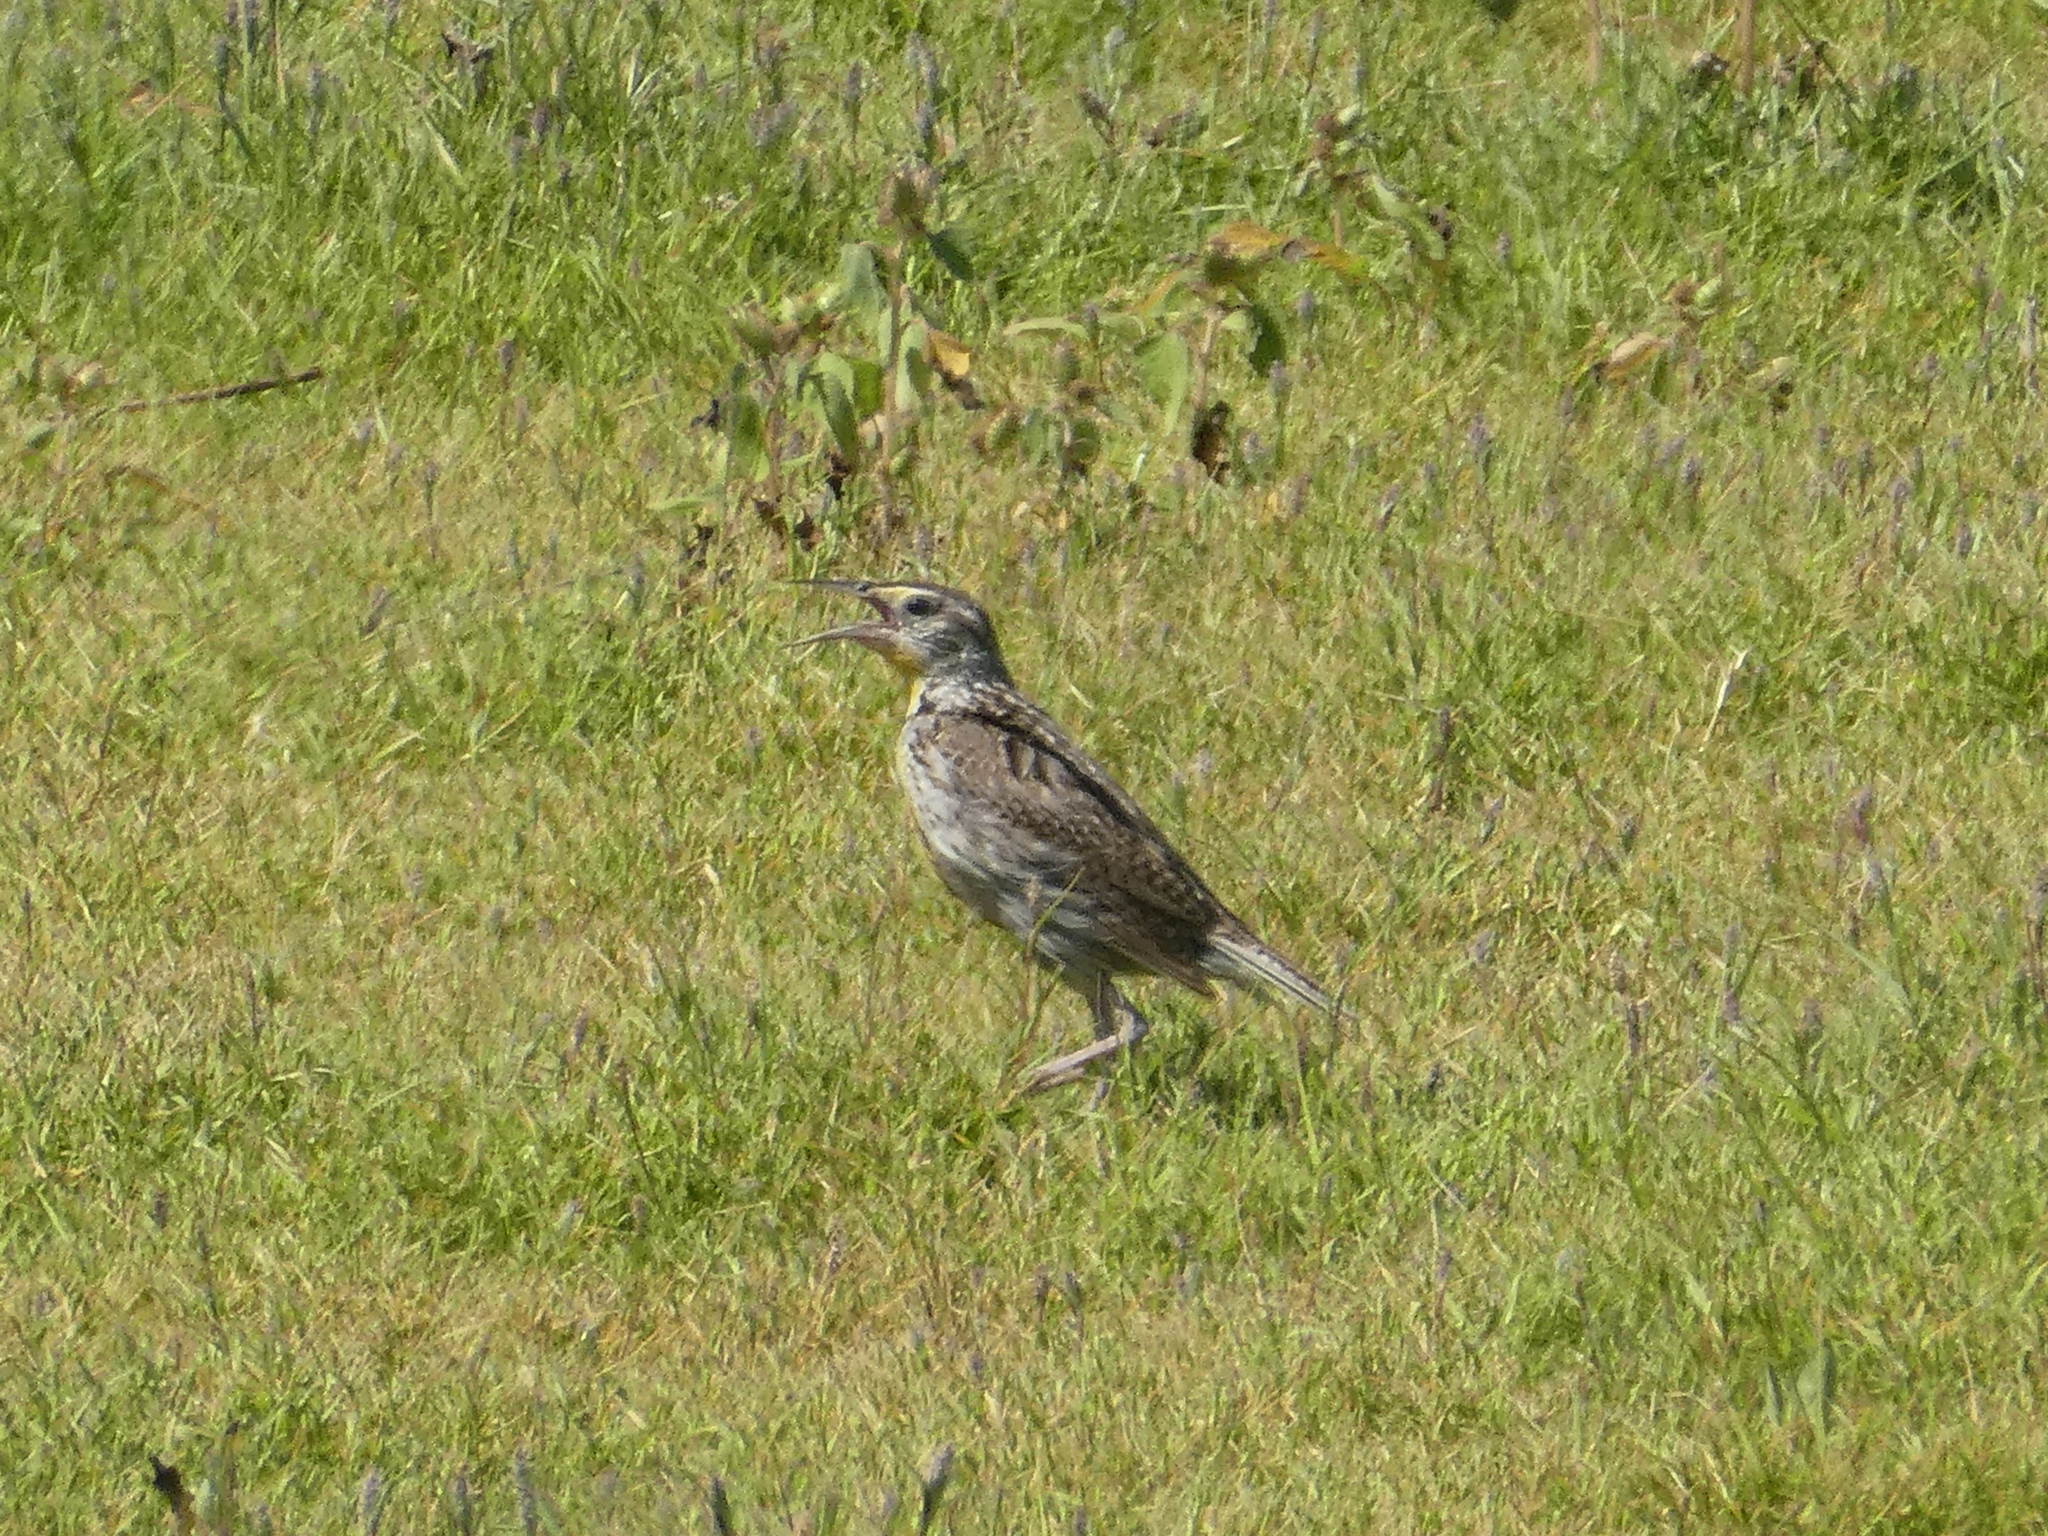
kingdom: Animalia
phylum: Chordata
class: Aves
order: Passeriformes
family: Icteridae
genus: Sturnella
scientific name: Sturnella neglecta
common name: Western meadowlark
